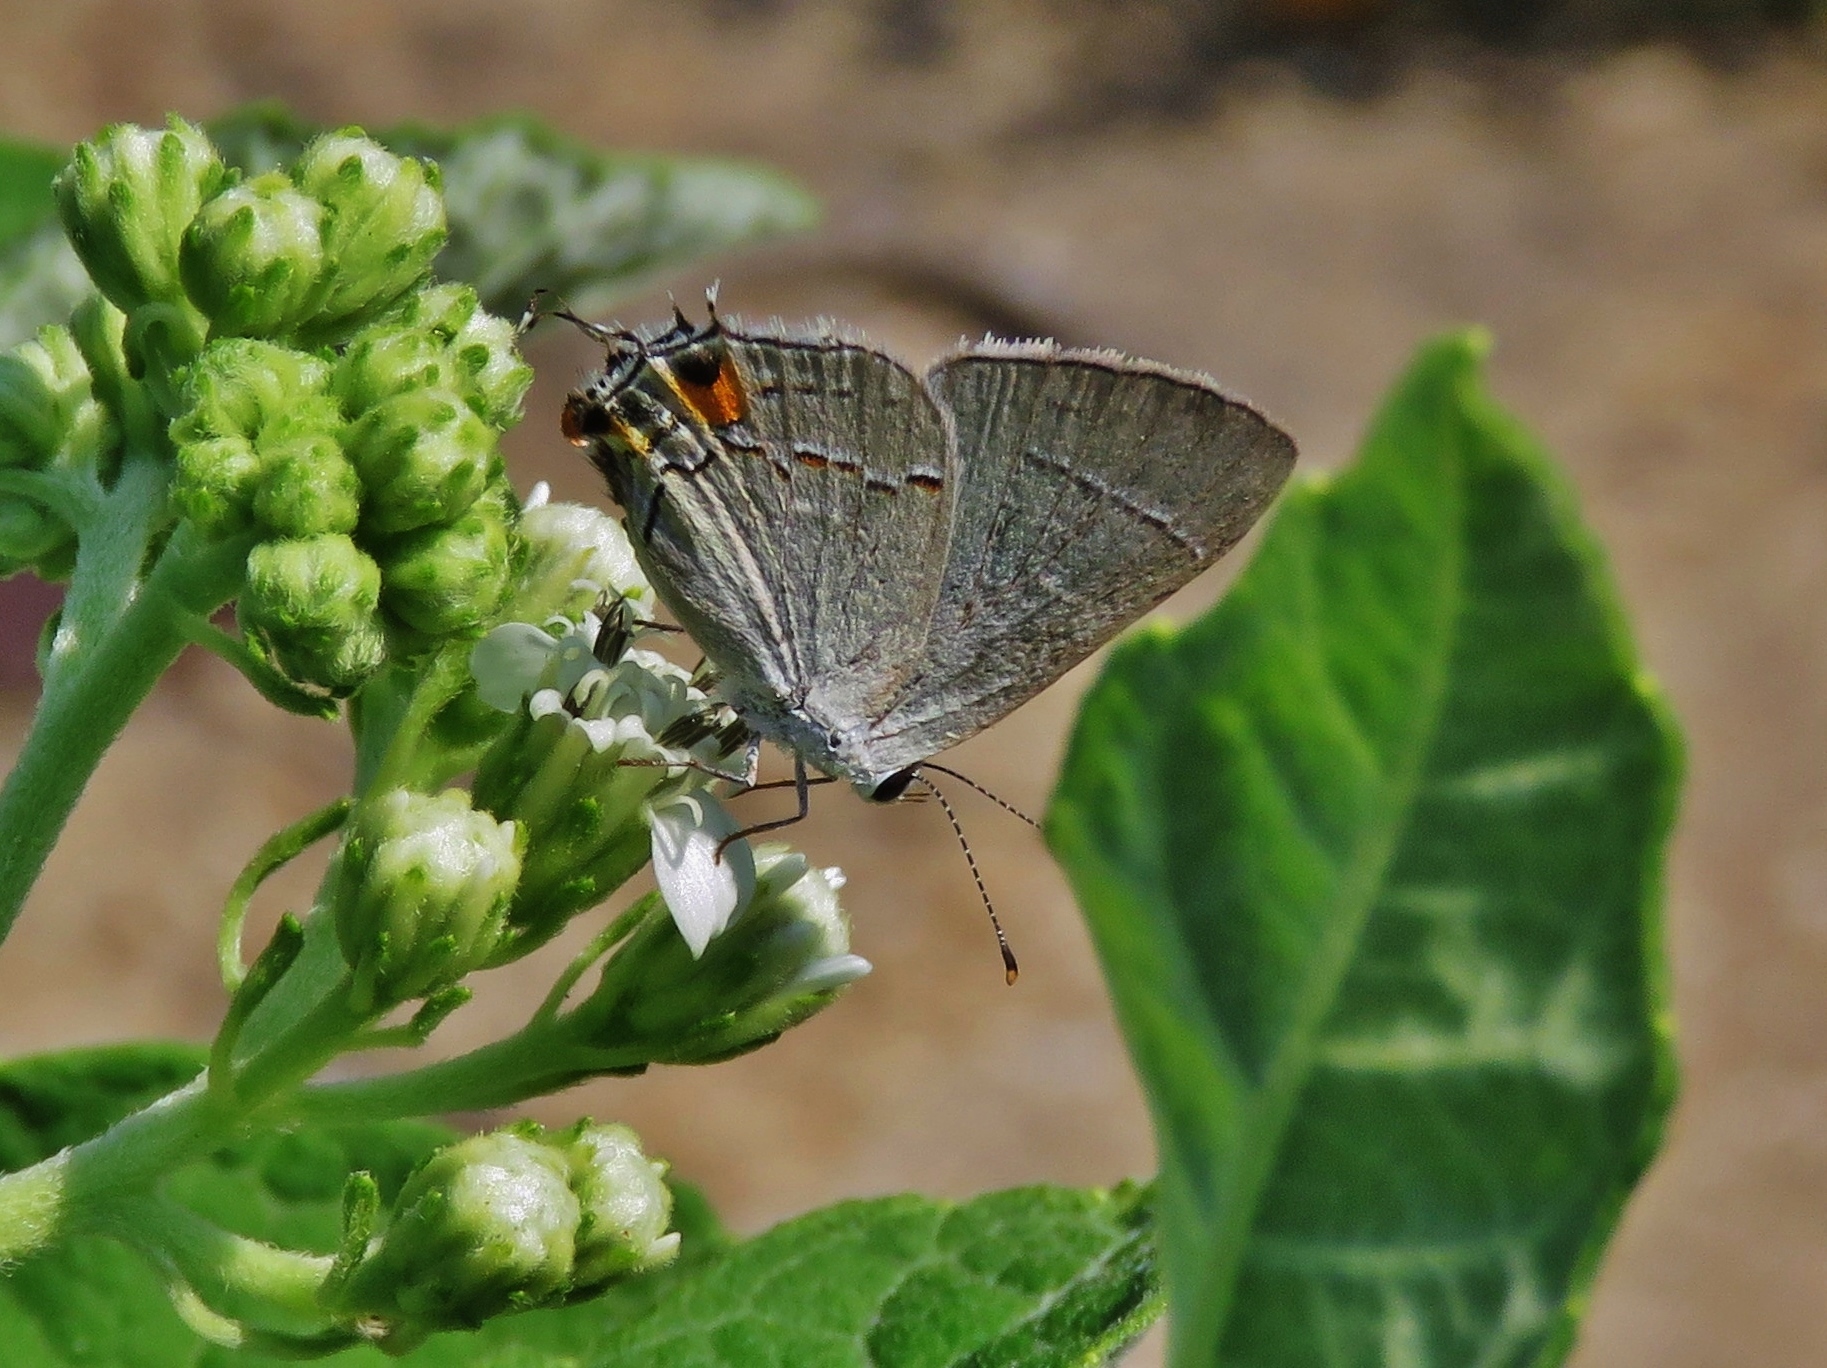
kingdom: Animalia
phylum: Arthropoda
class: Insecta
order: Lepidoptera
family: Lycaenidae
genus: Strymon
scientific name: Strymon melinus
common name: Gray hairstreak
